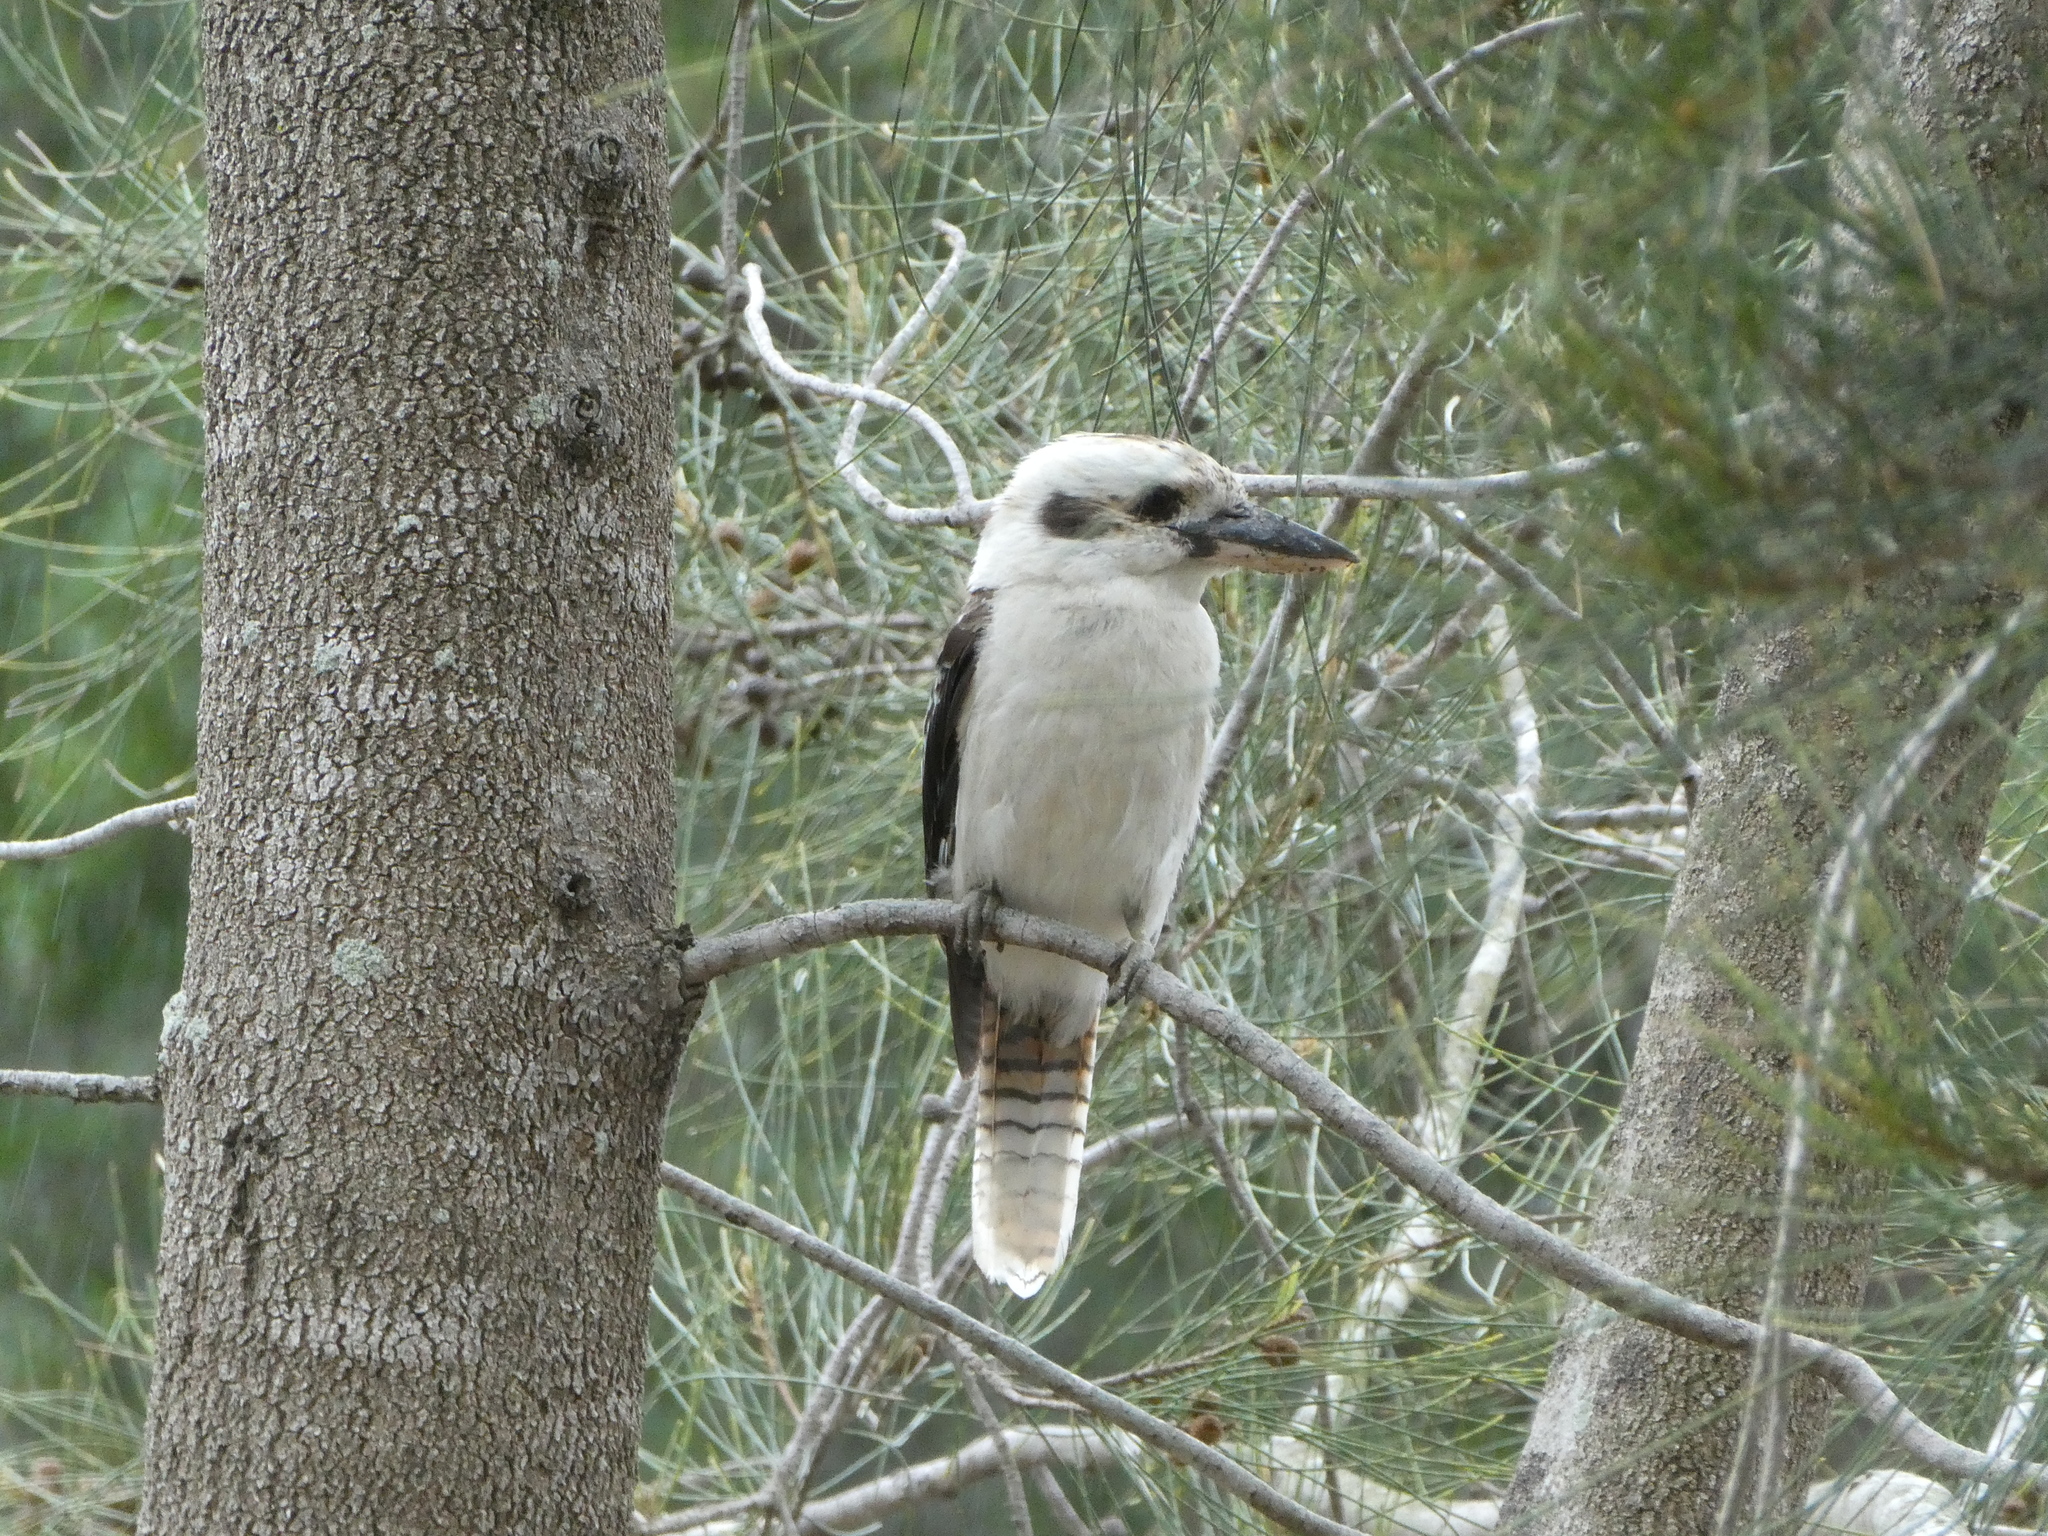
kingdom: Animalia
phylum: Chordata
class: Aves
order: Coraciiformes
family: Alcedinidae
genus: Dacelo
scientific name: Dacelo novaeguineae
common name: Laughing kookaburra
